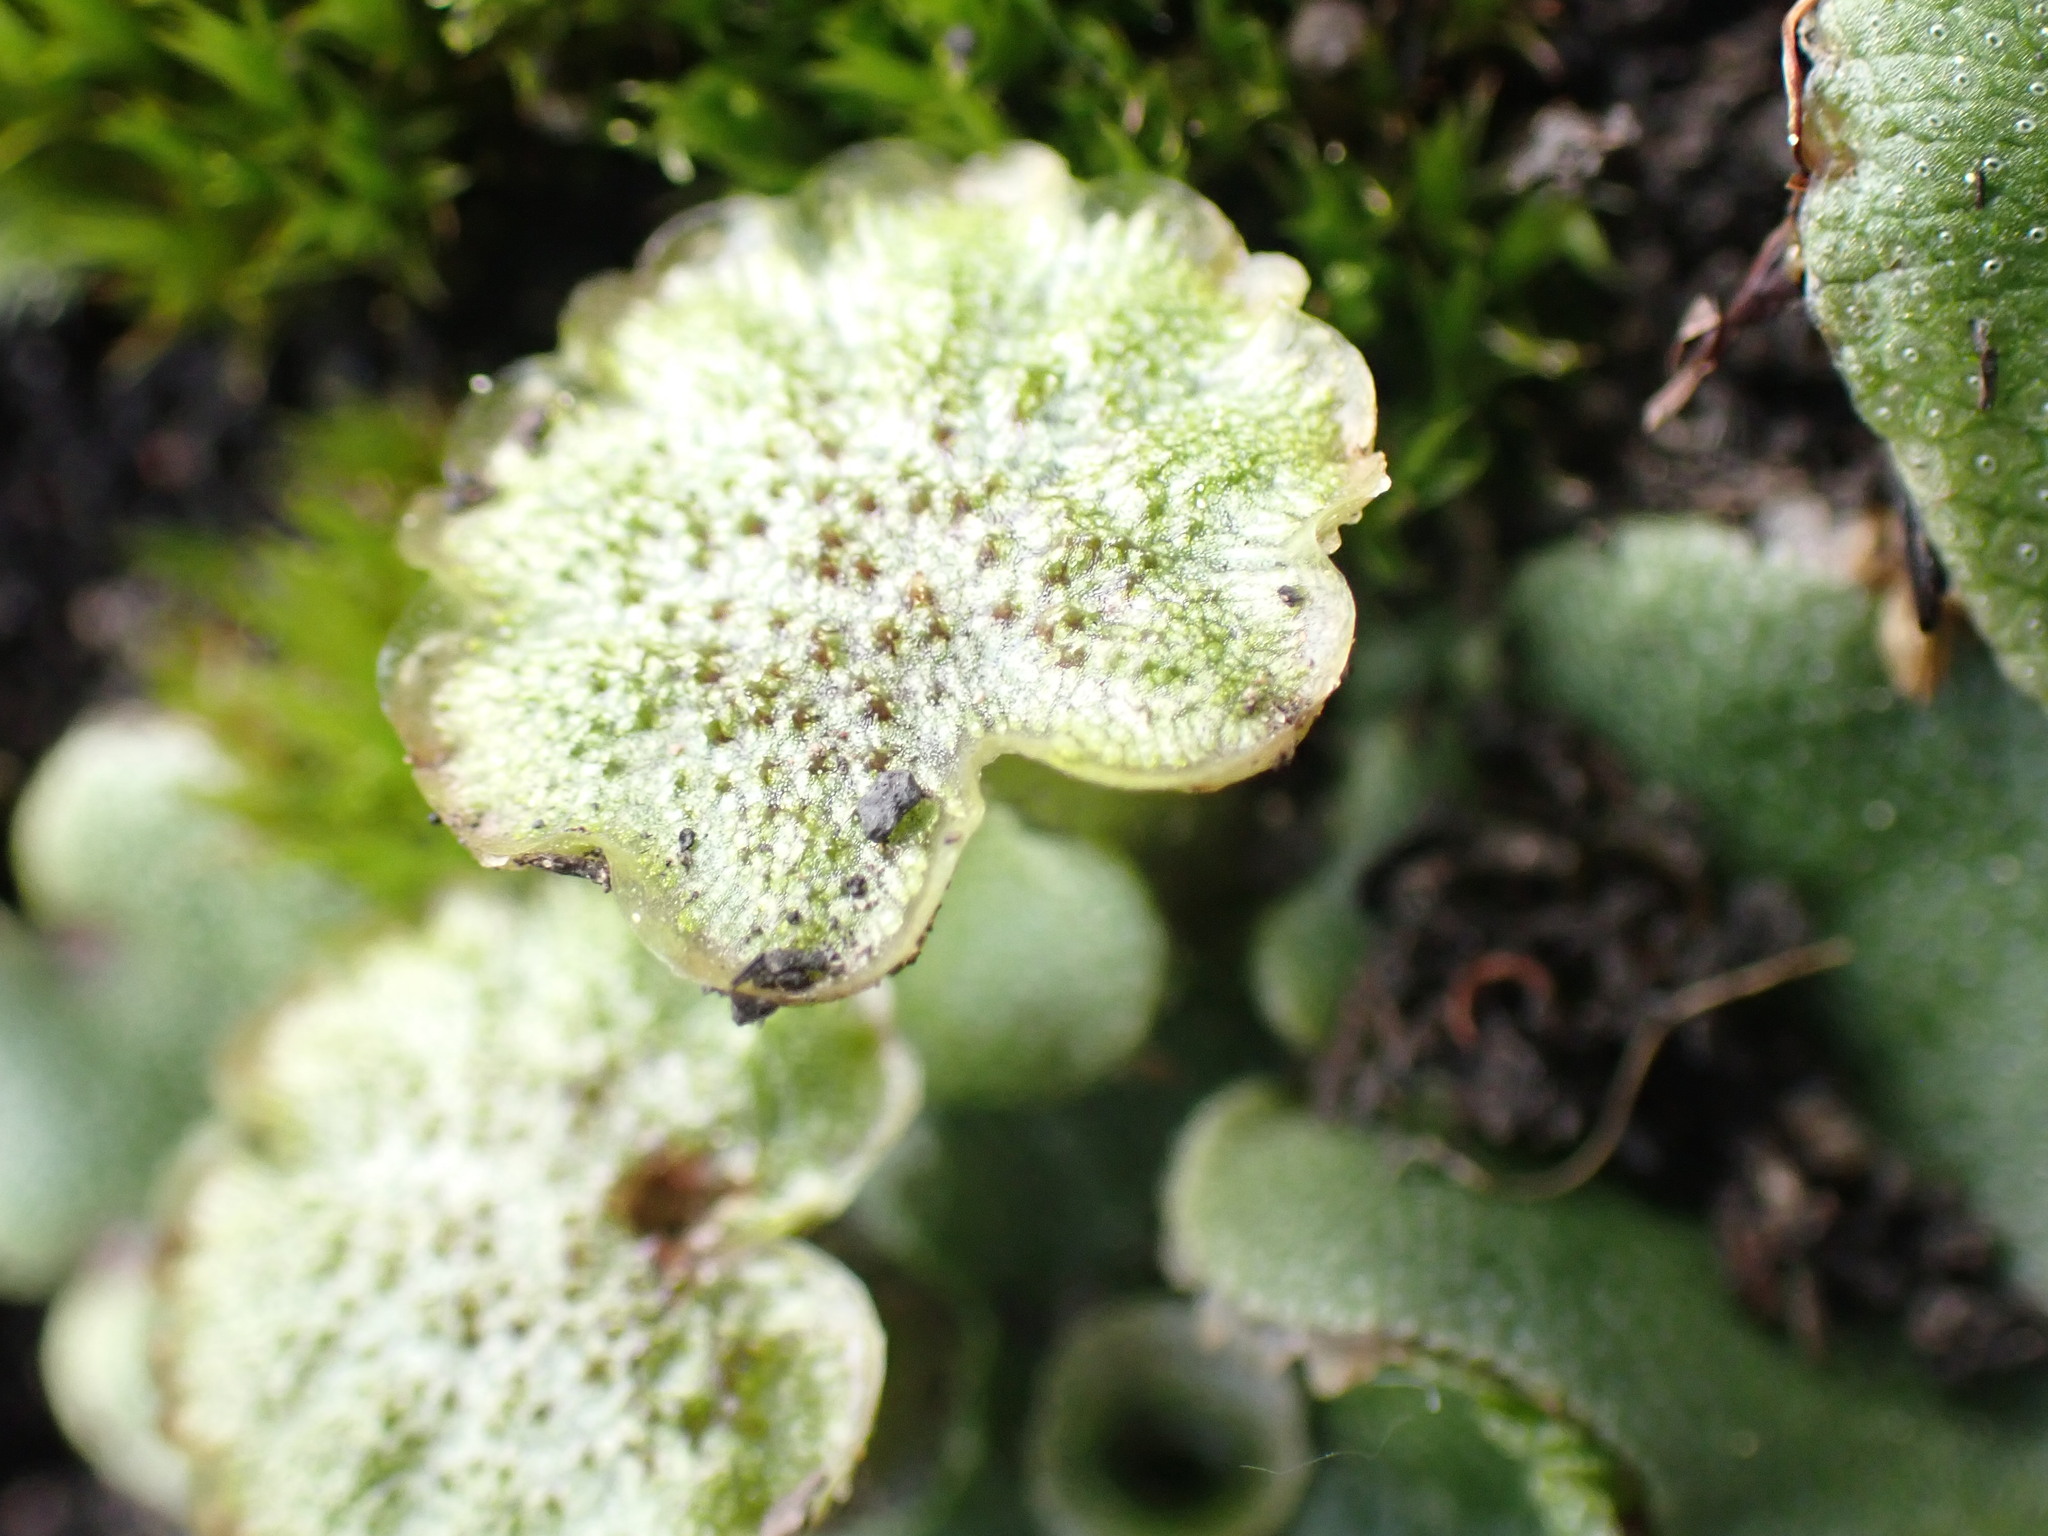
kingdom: Plantae
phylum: Marchantiophyta
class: Marchantiopsida
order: Marchantiales
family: Marchantiaceae
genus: Marchantia
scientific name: Marchantia polymorpha
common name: Common liverwort
